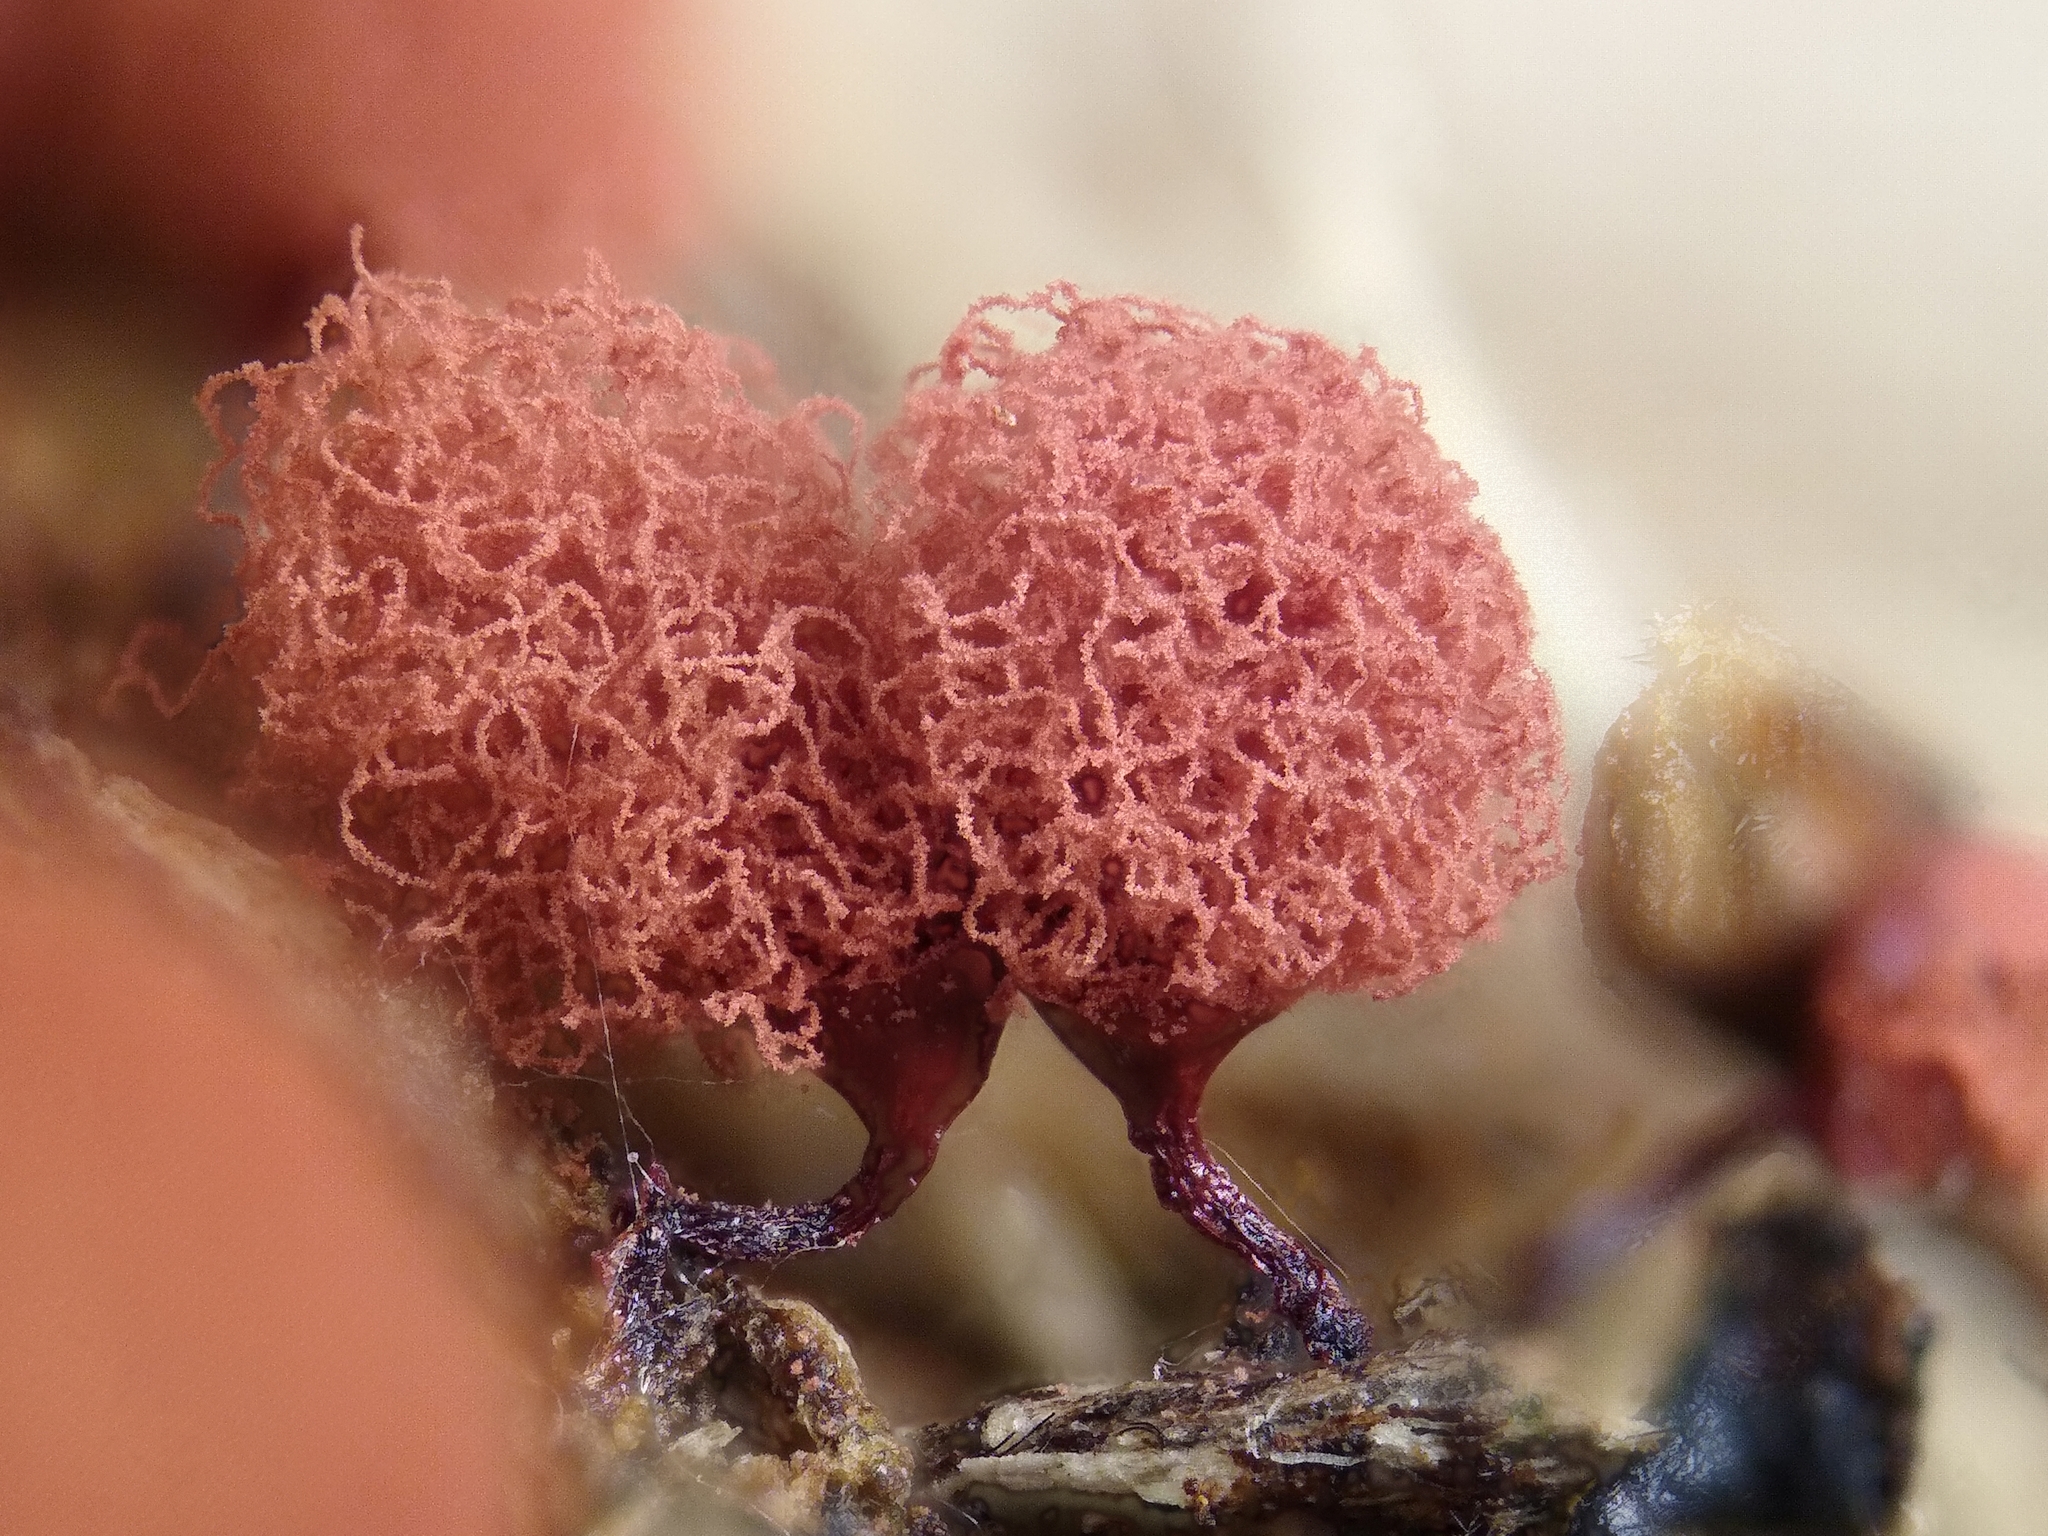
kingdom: Protozoa
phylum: Mycetozoa
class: Myxomycetes
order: Trichiales
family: Arcyriaceae
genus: Arcyria
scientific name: Arcyria denudata
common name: Carnival candy slime mold
